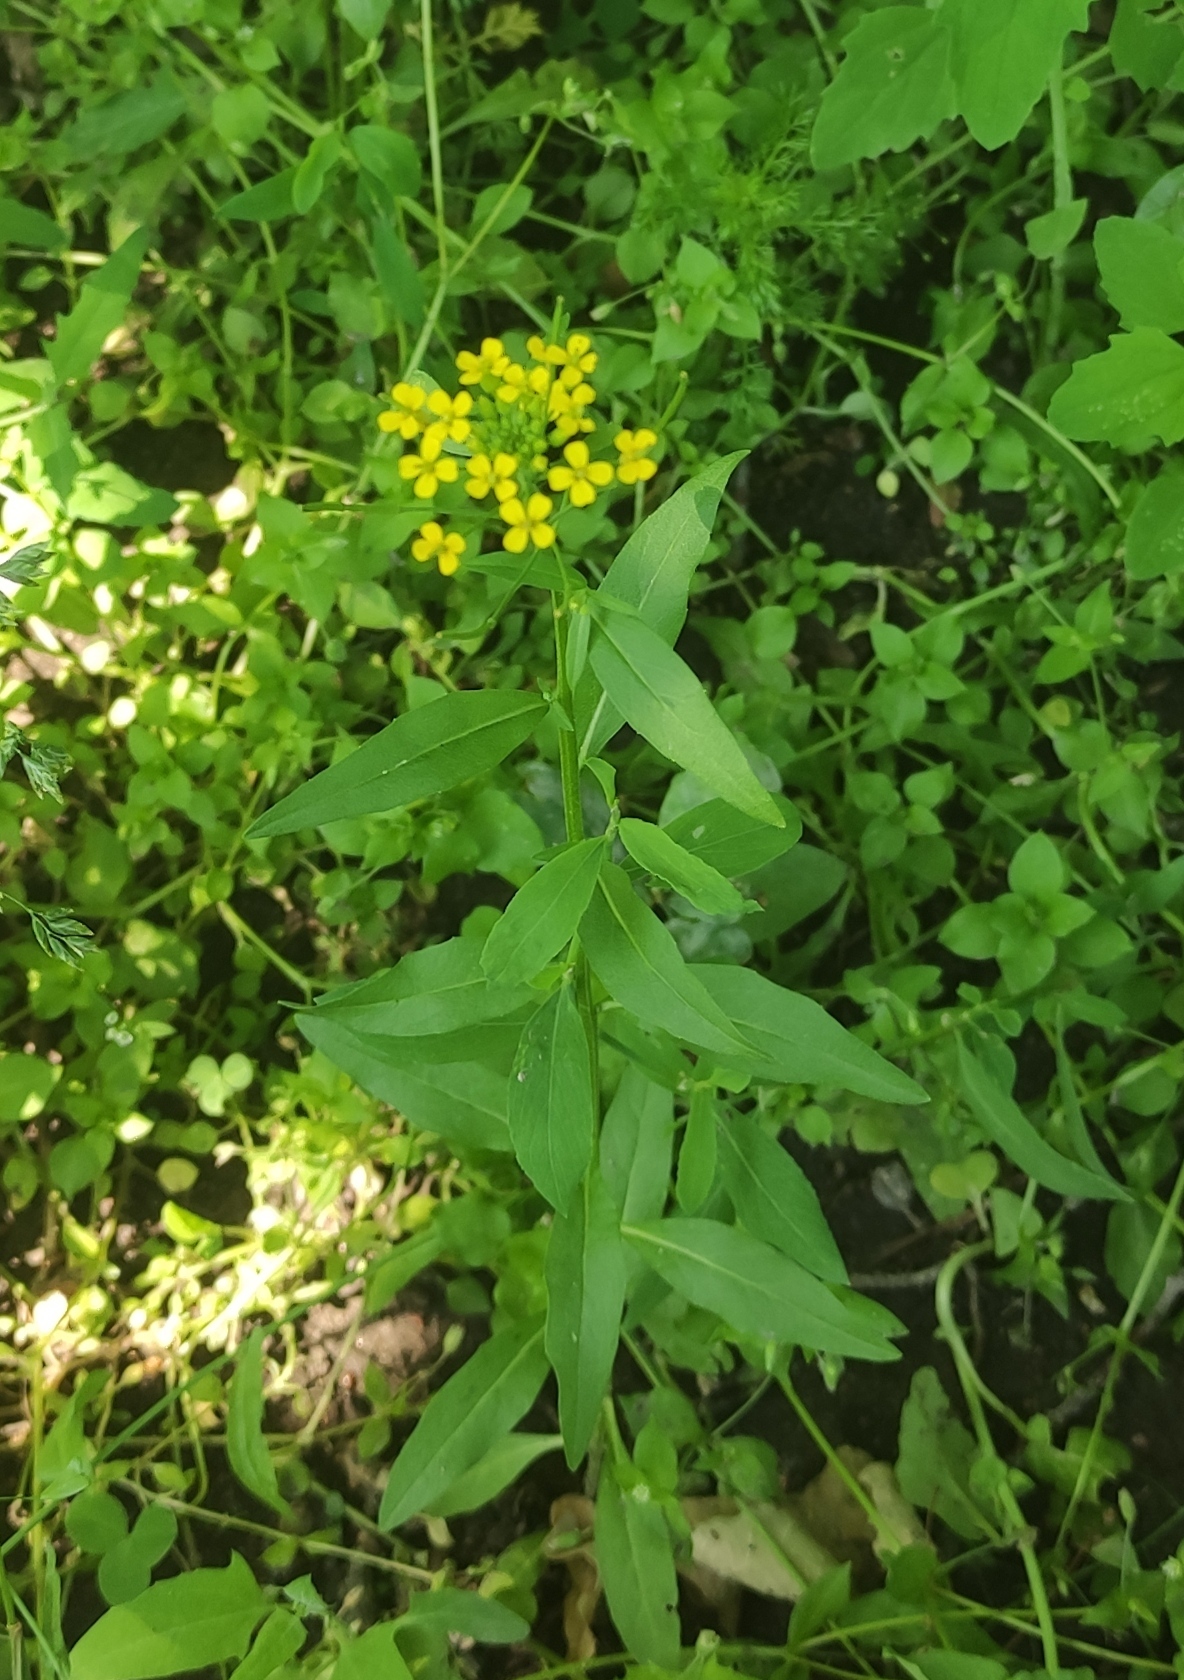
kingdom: Plantae
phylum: Tracheophyta
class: Magnoliopsida
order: Brassicales
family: Brassicaceae
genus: Erysimum
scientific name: Erysimum cheiranthoides
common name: Treacle mustard
